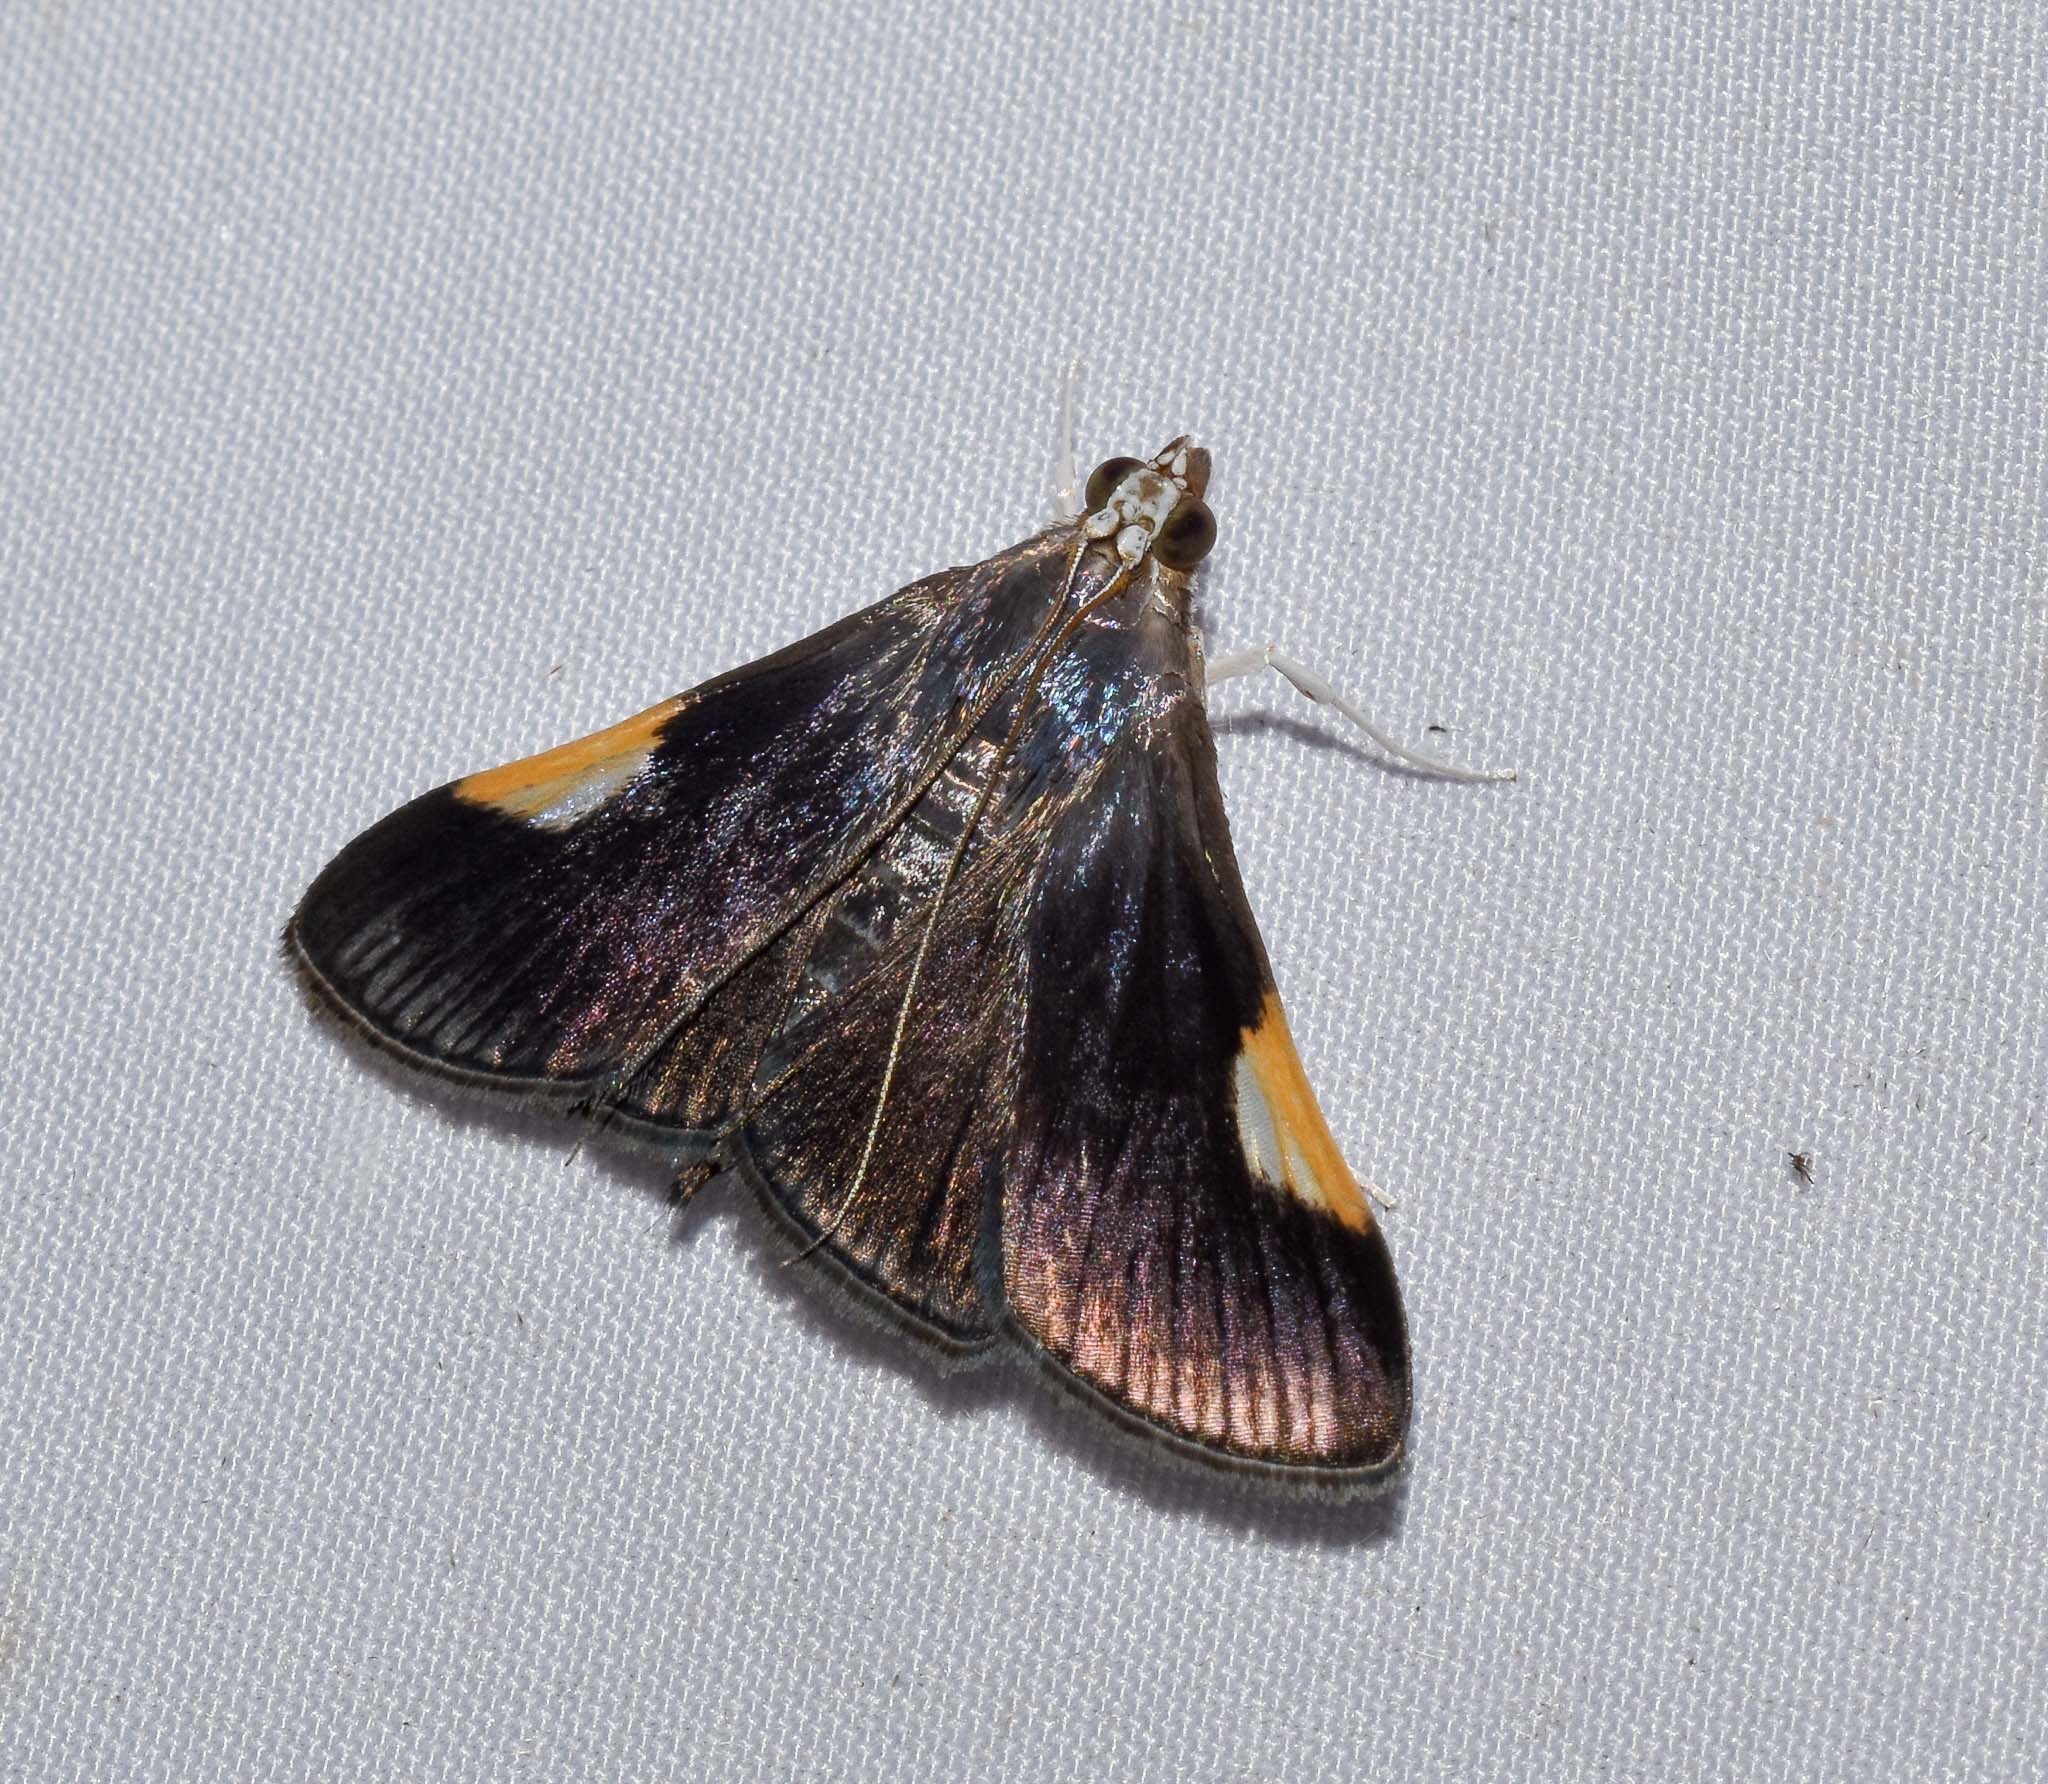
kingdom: Animalia
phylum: Arthropoda
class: Insecta
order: Lepidoptera
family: Crambidae
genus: Tyspanodes
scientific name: Tyspanodes
